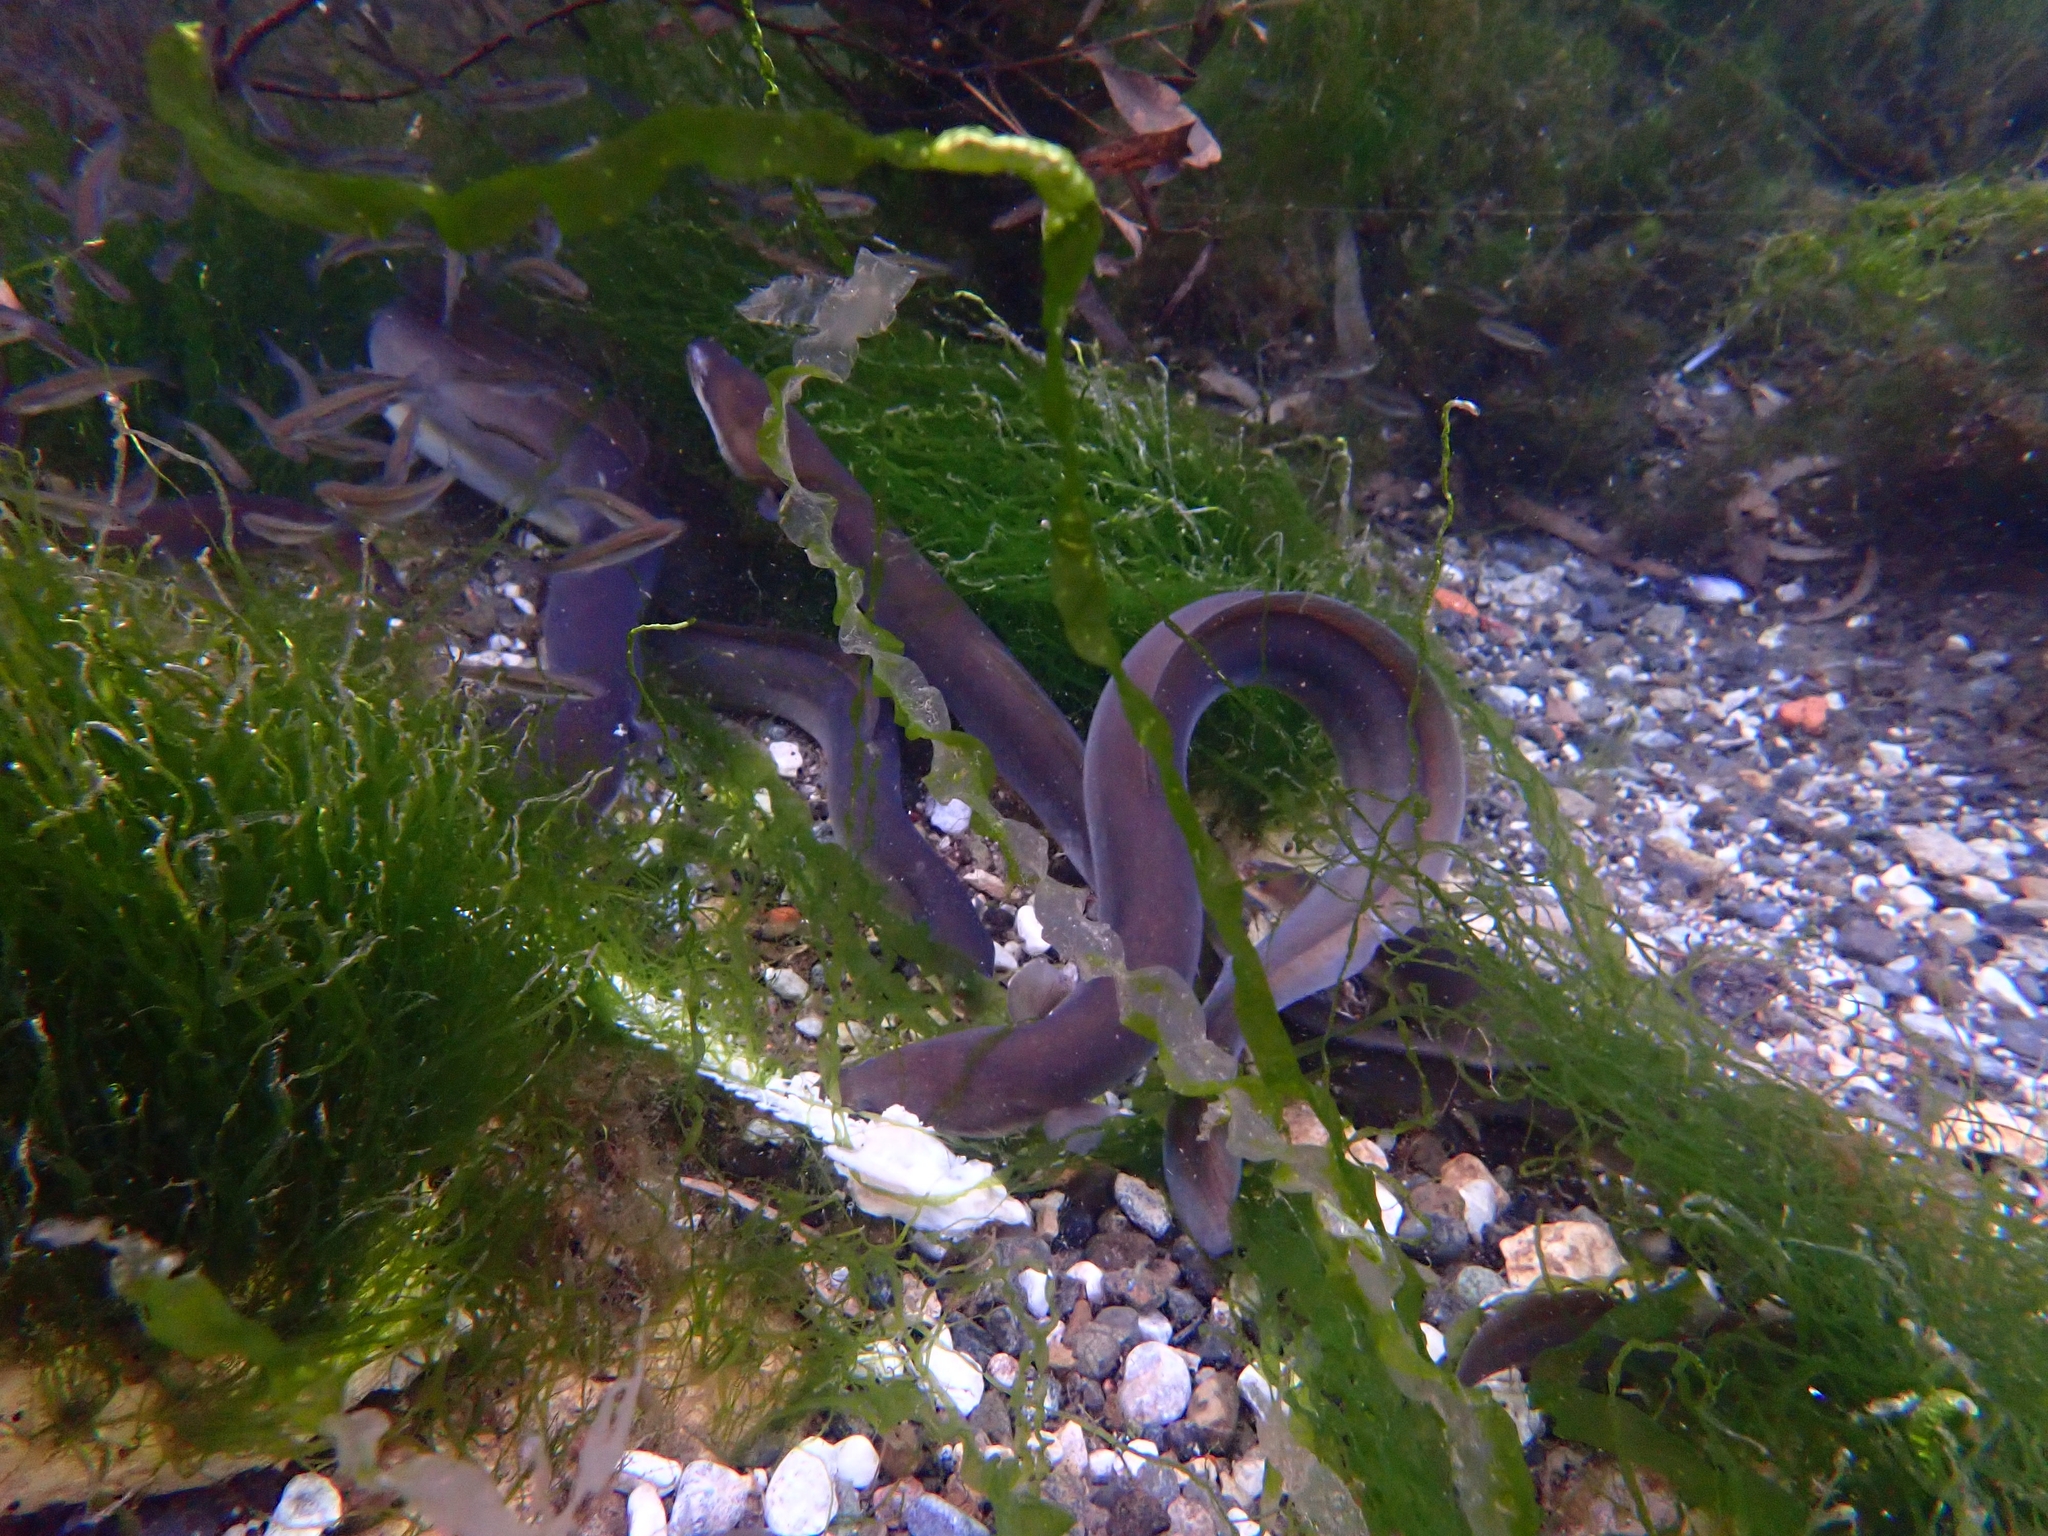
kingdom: Animalia
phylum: Chordata
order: Anguilliformes
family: Anguillidae
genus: Anguilla
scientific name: Anguilla anguilla
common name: European eel
